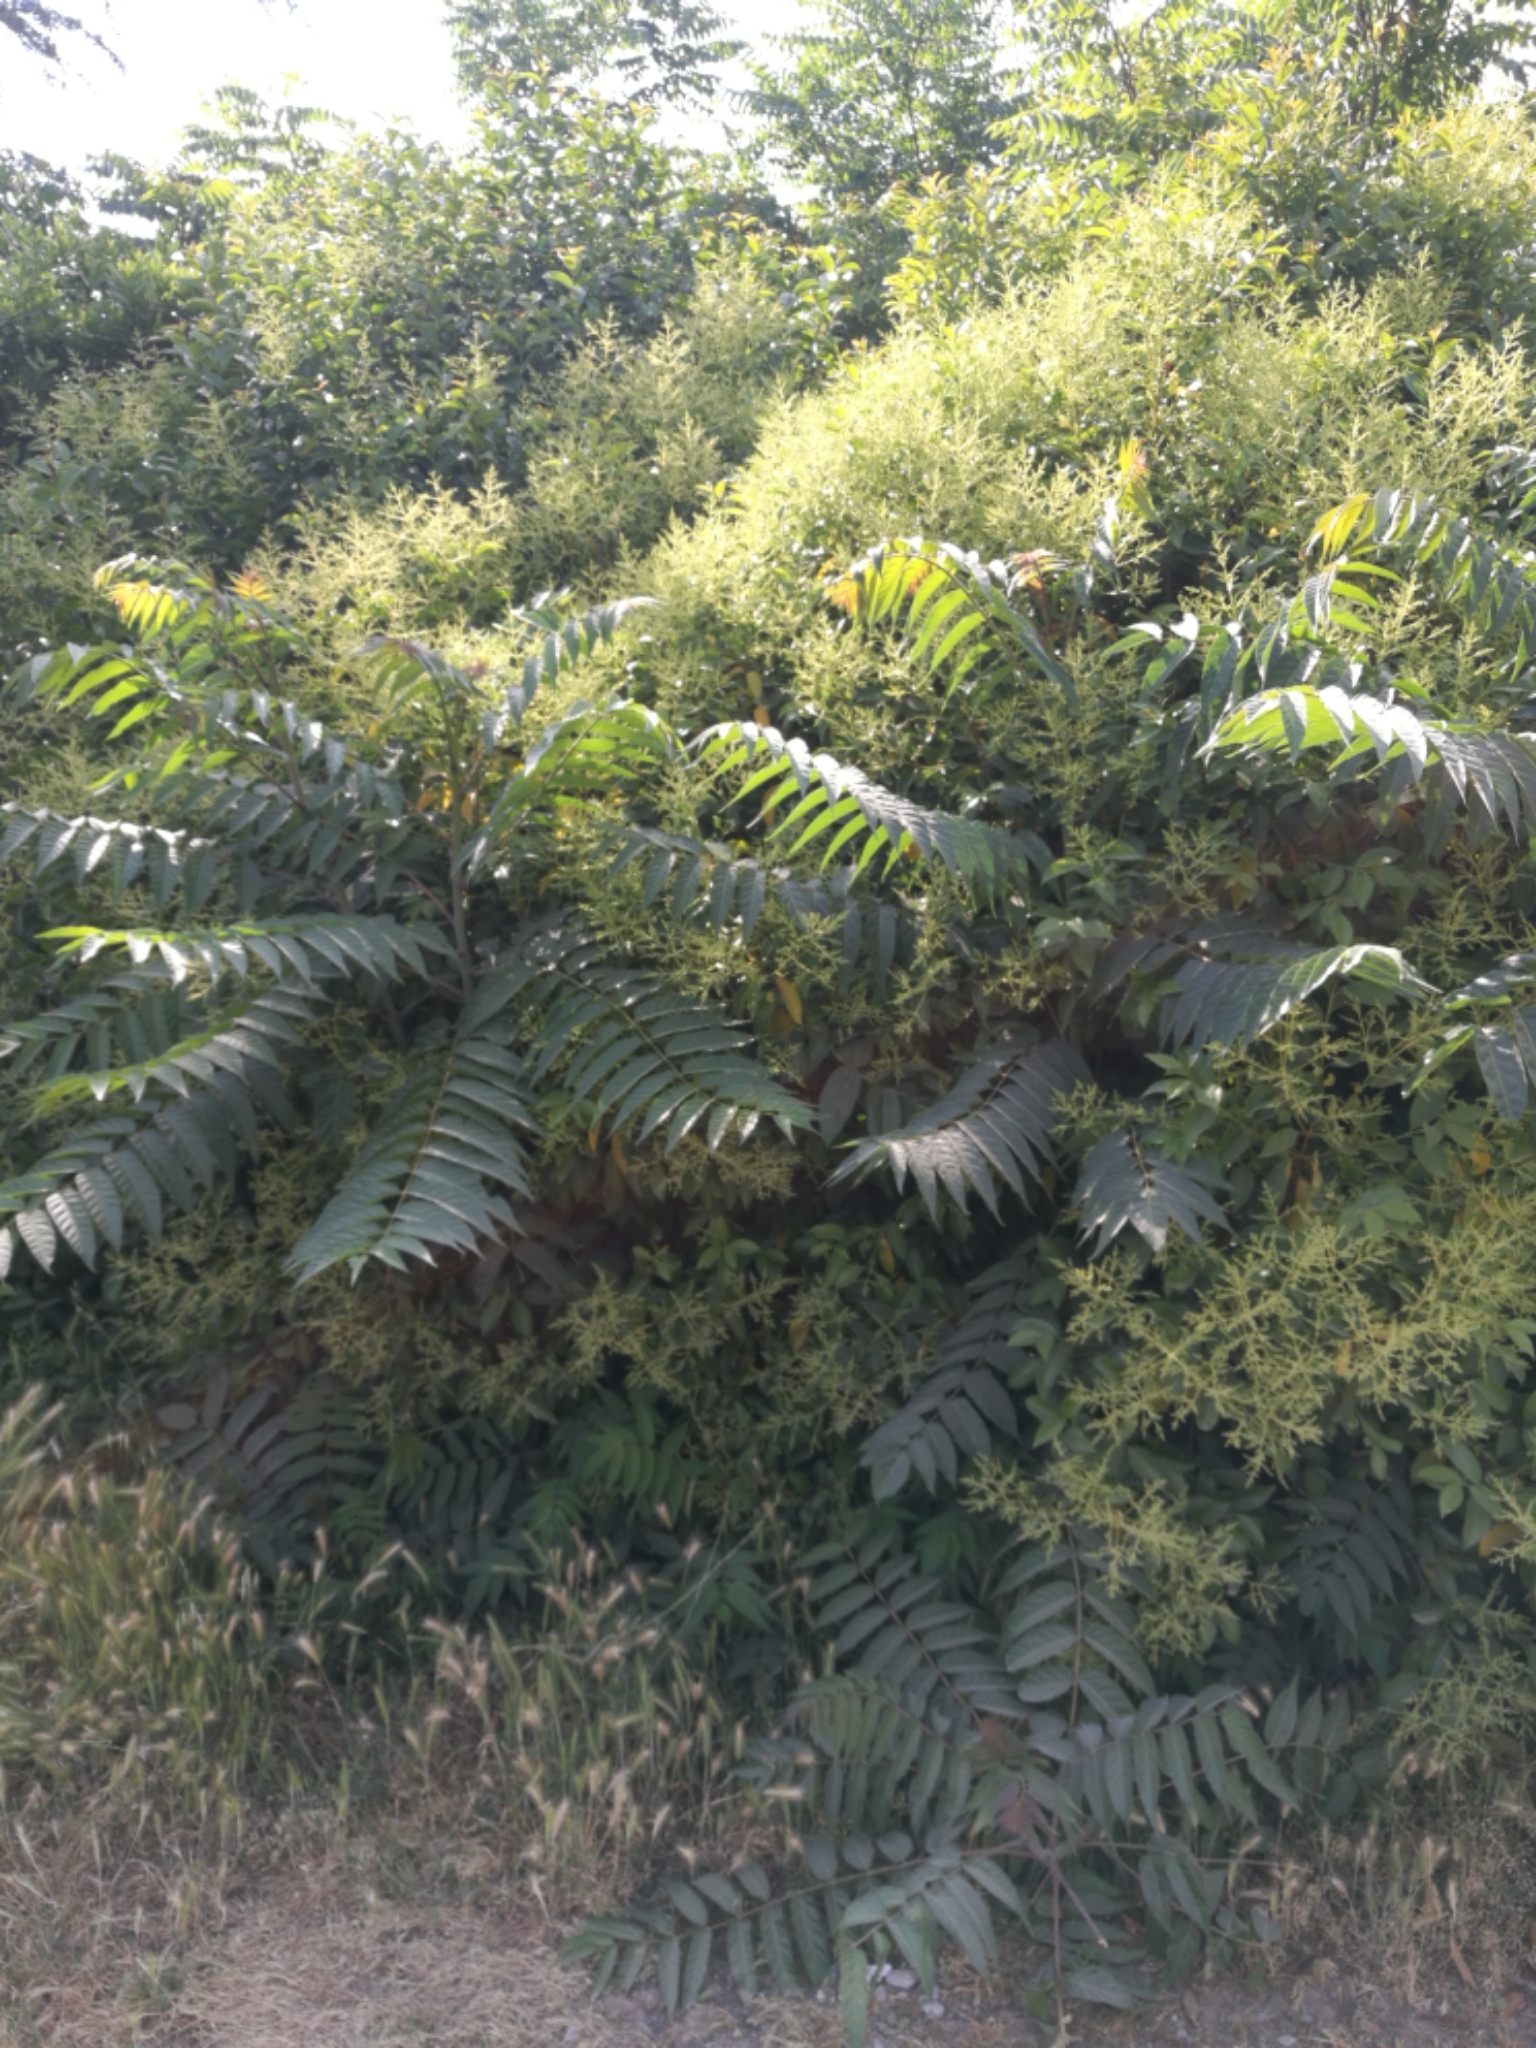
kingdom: Plantae
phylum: Tracheophyta
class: Magnoliopsida
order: Sapindales
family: Simaroubaceae
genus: Ailanthus
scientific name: Ailanthus altissima
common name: Tree-of-heaven
